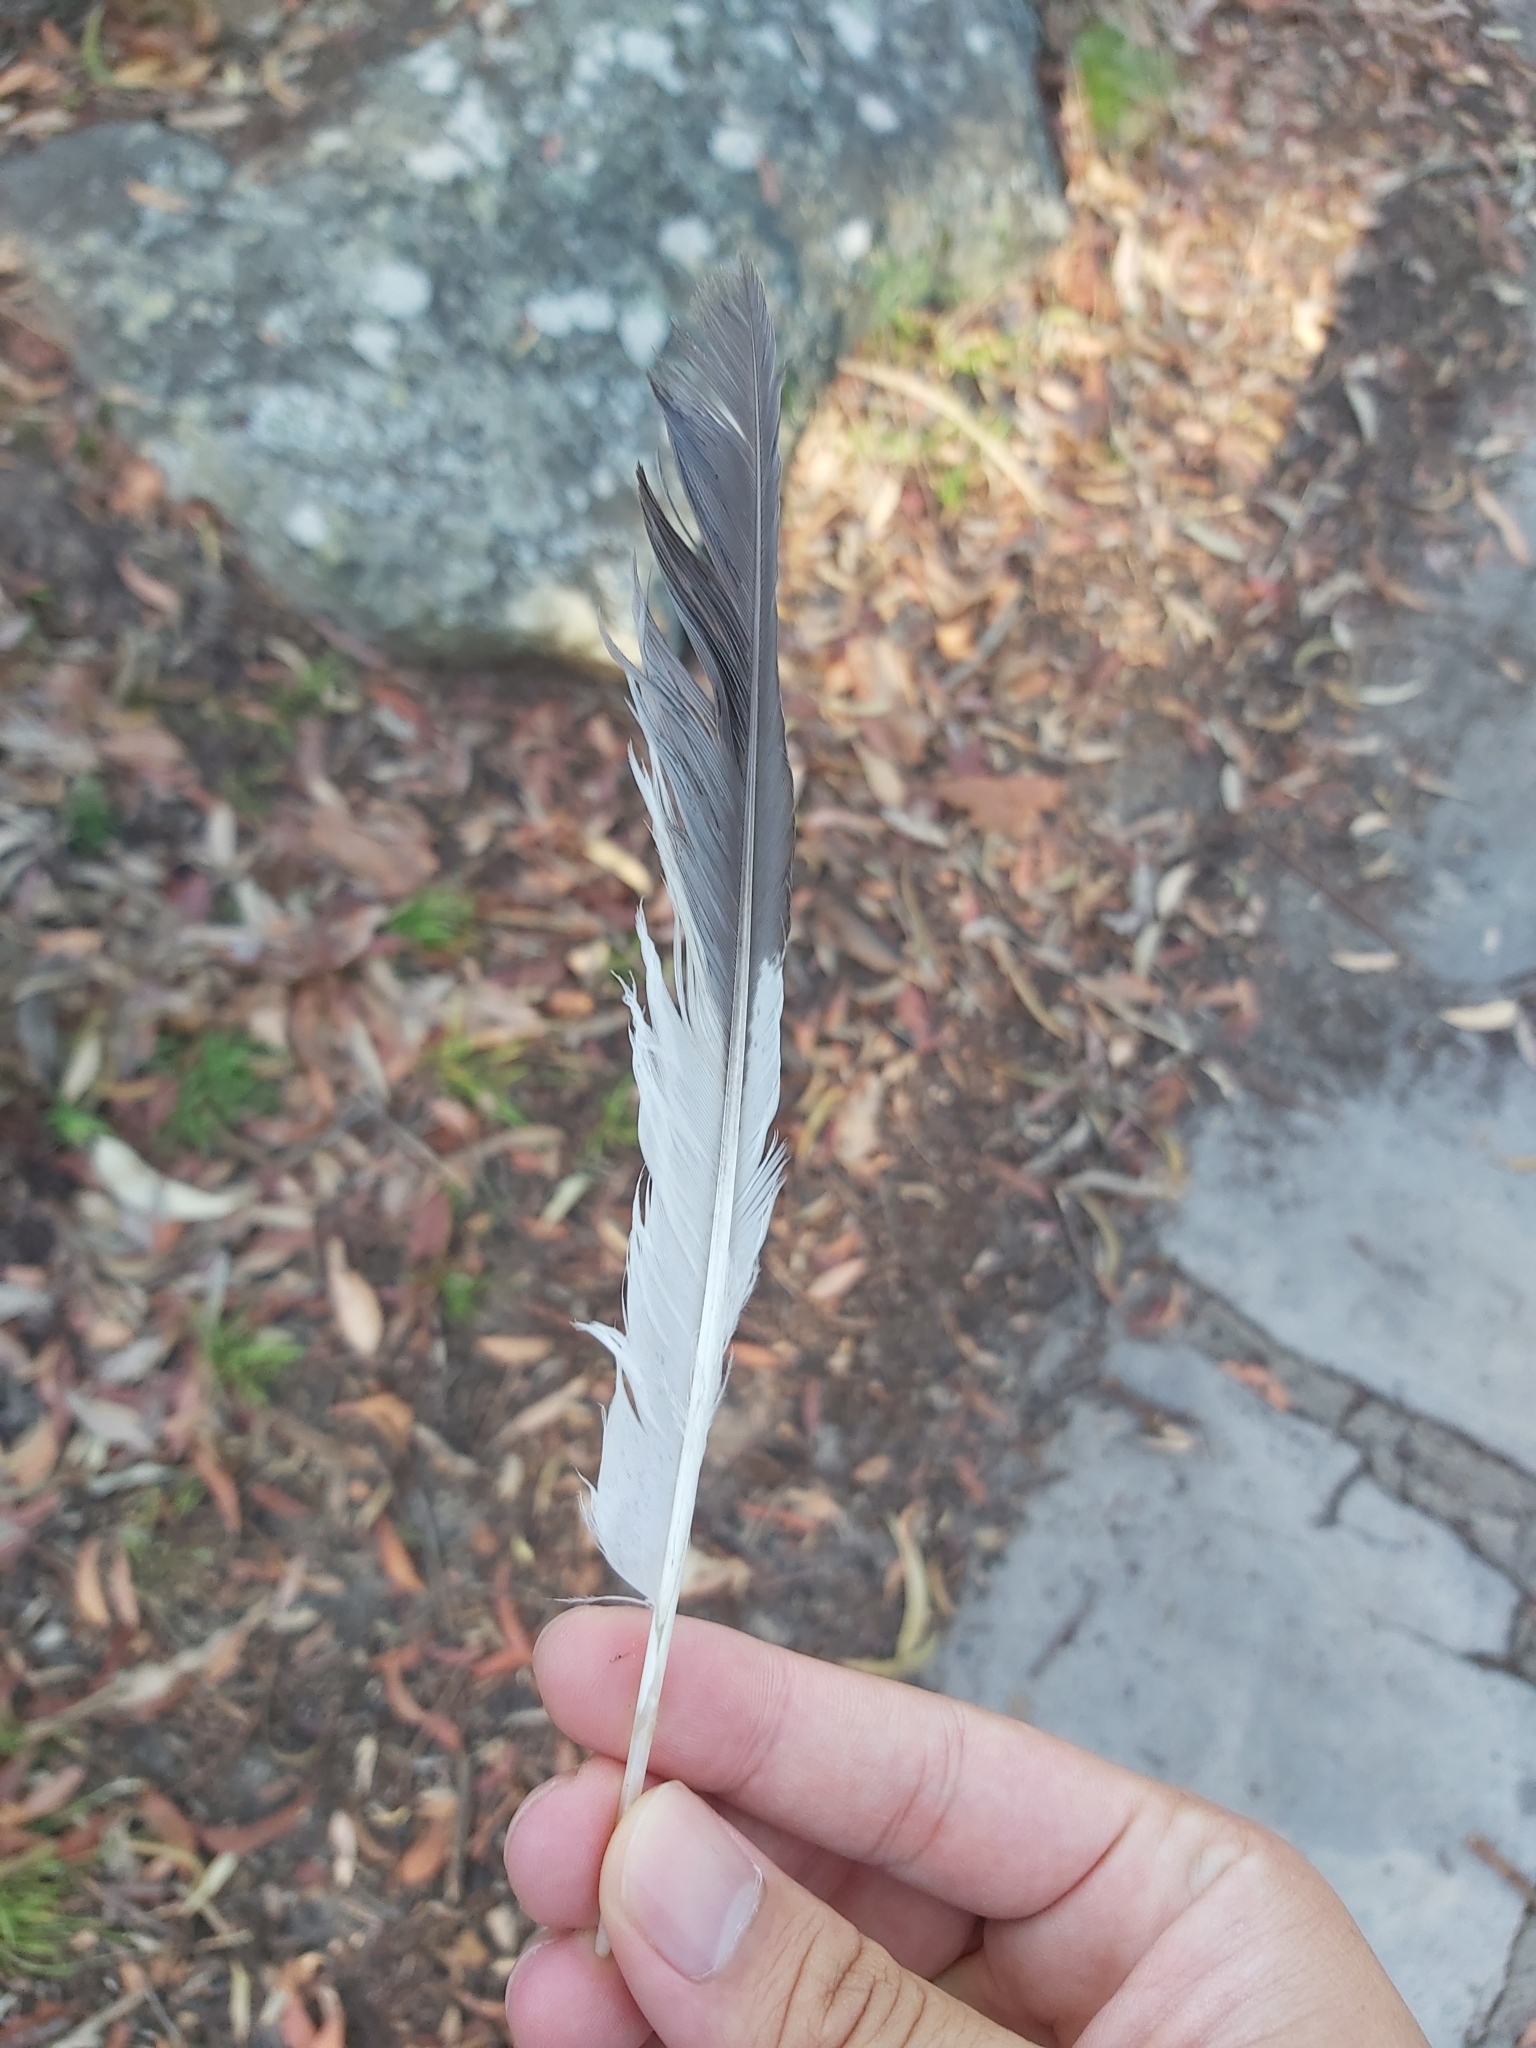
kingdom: Animalia
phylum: Chordata
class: Aves
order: Coraciiformes
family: Alcedinidae
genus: Dacelo
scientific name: Dacelo novaeguineae
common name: Laughing kookaburra
